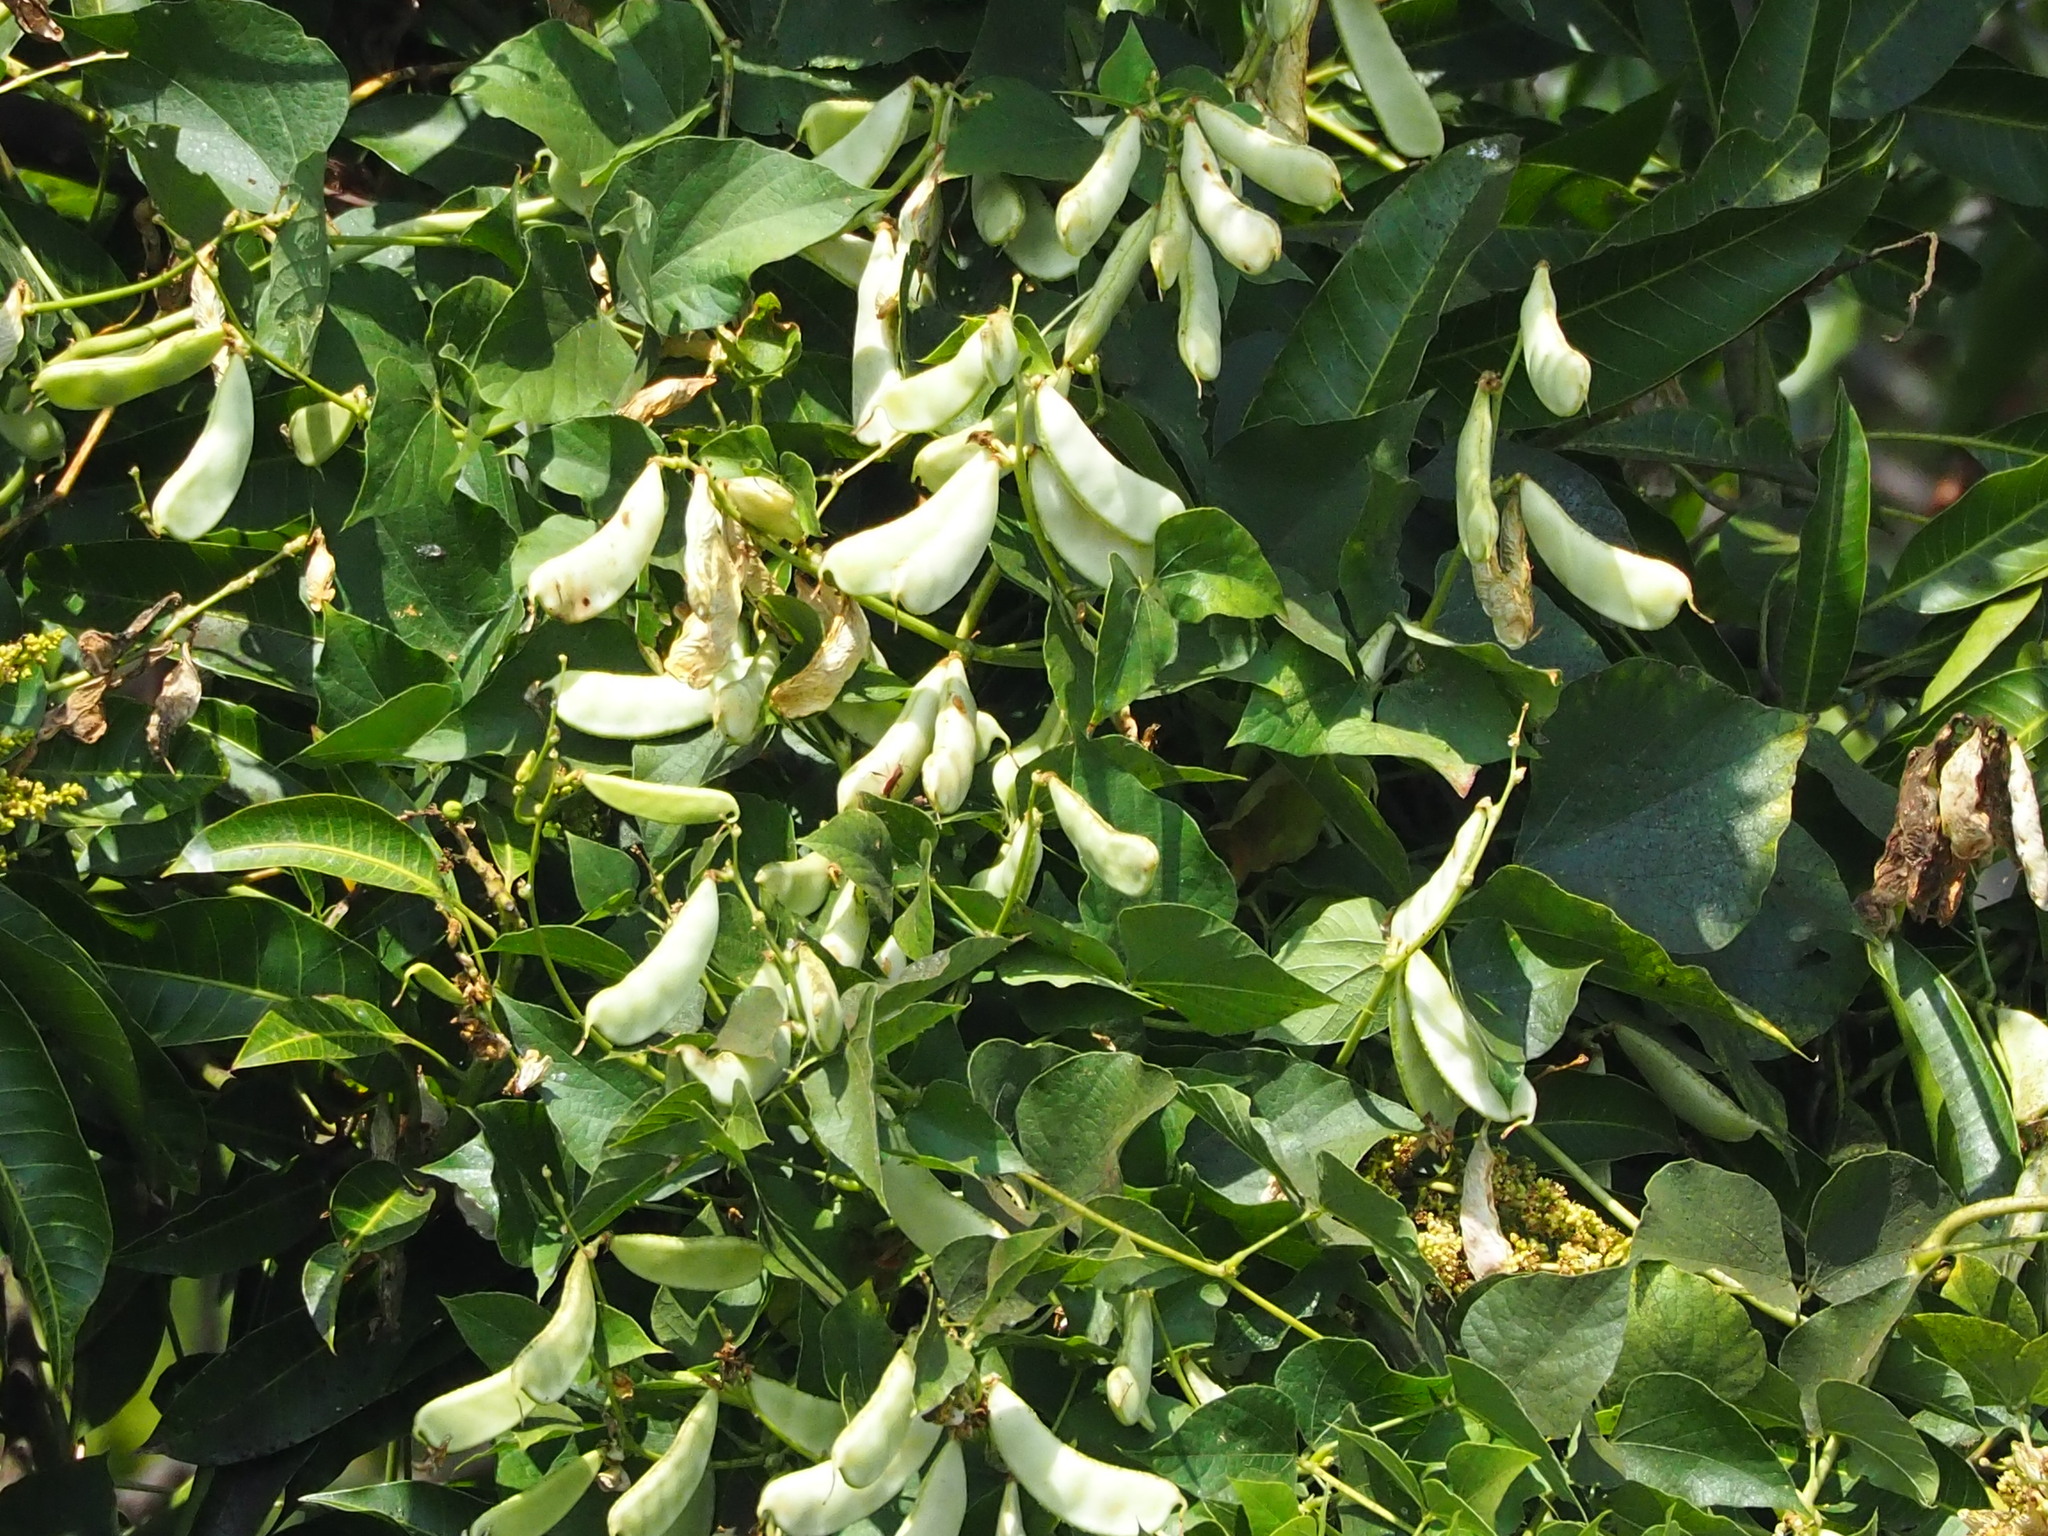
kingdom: Plantae
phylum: Tracheophyta
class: Magnoliopsida
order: Fabales
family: Fabaceae
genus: Lablab
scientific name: Lablab purpureus
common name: Lablab-bean
